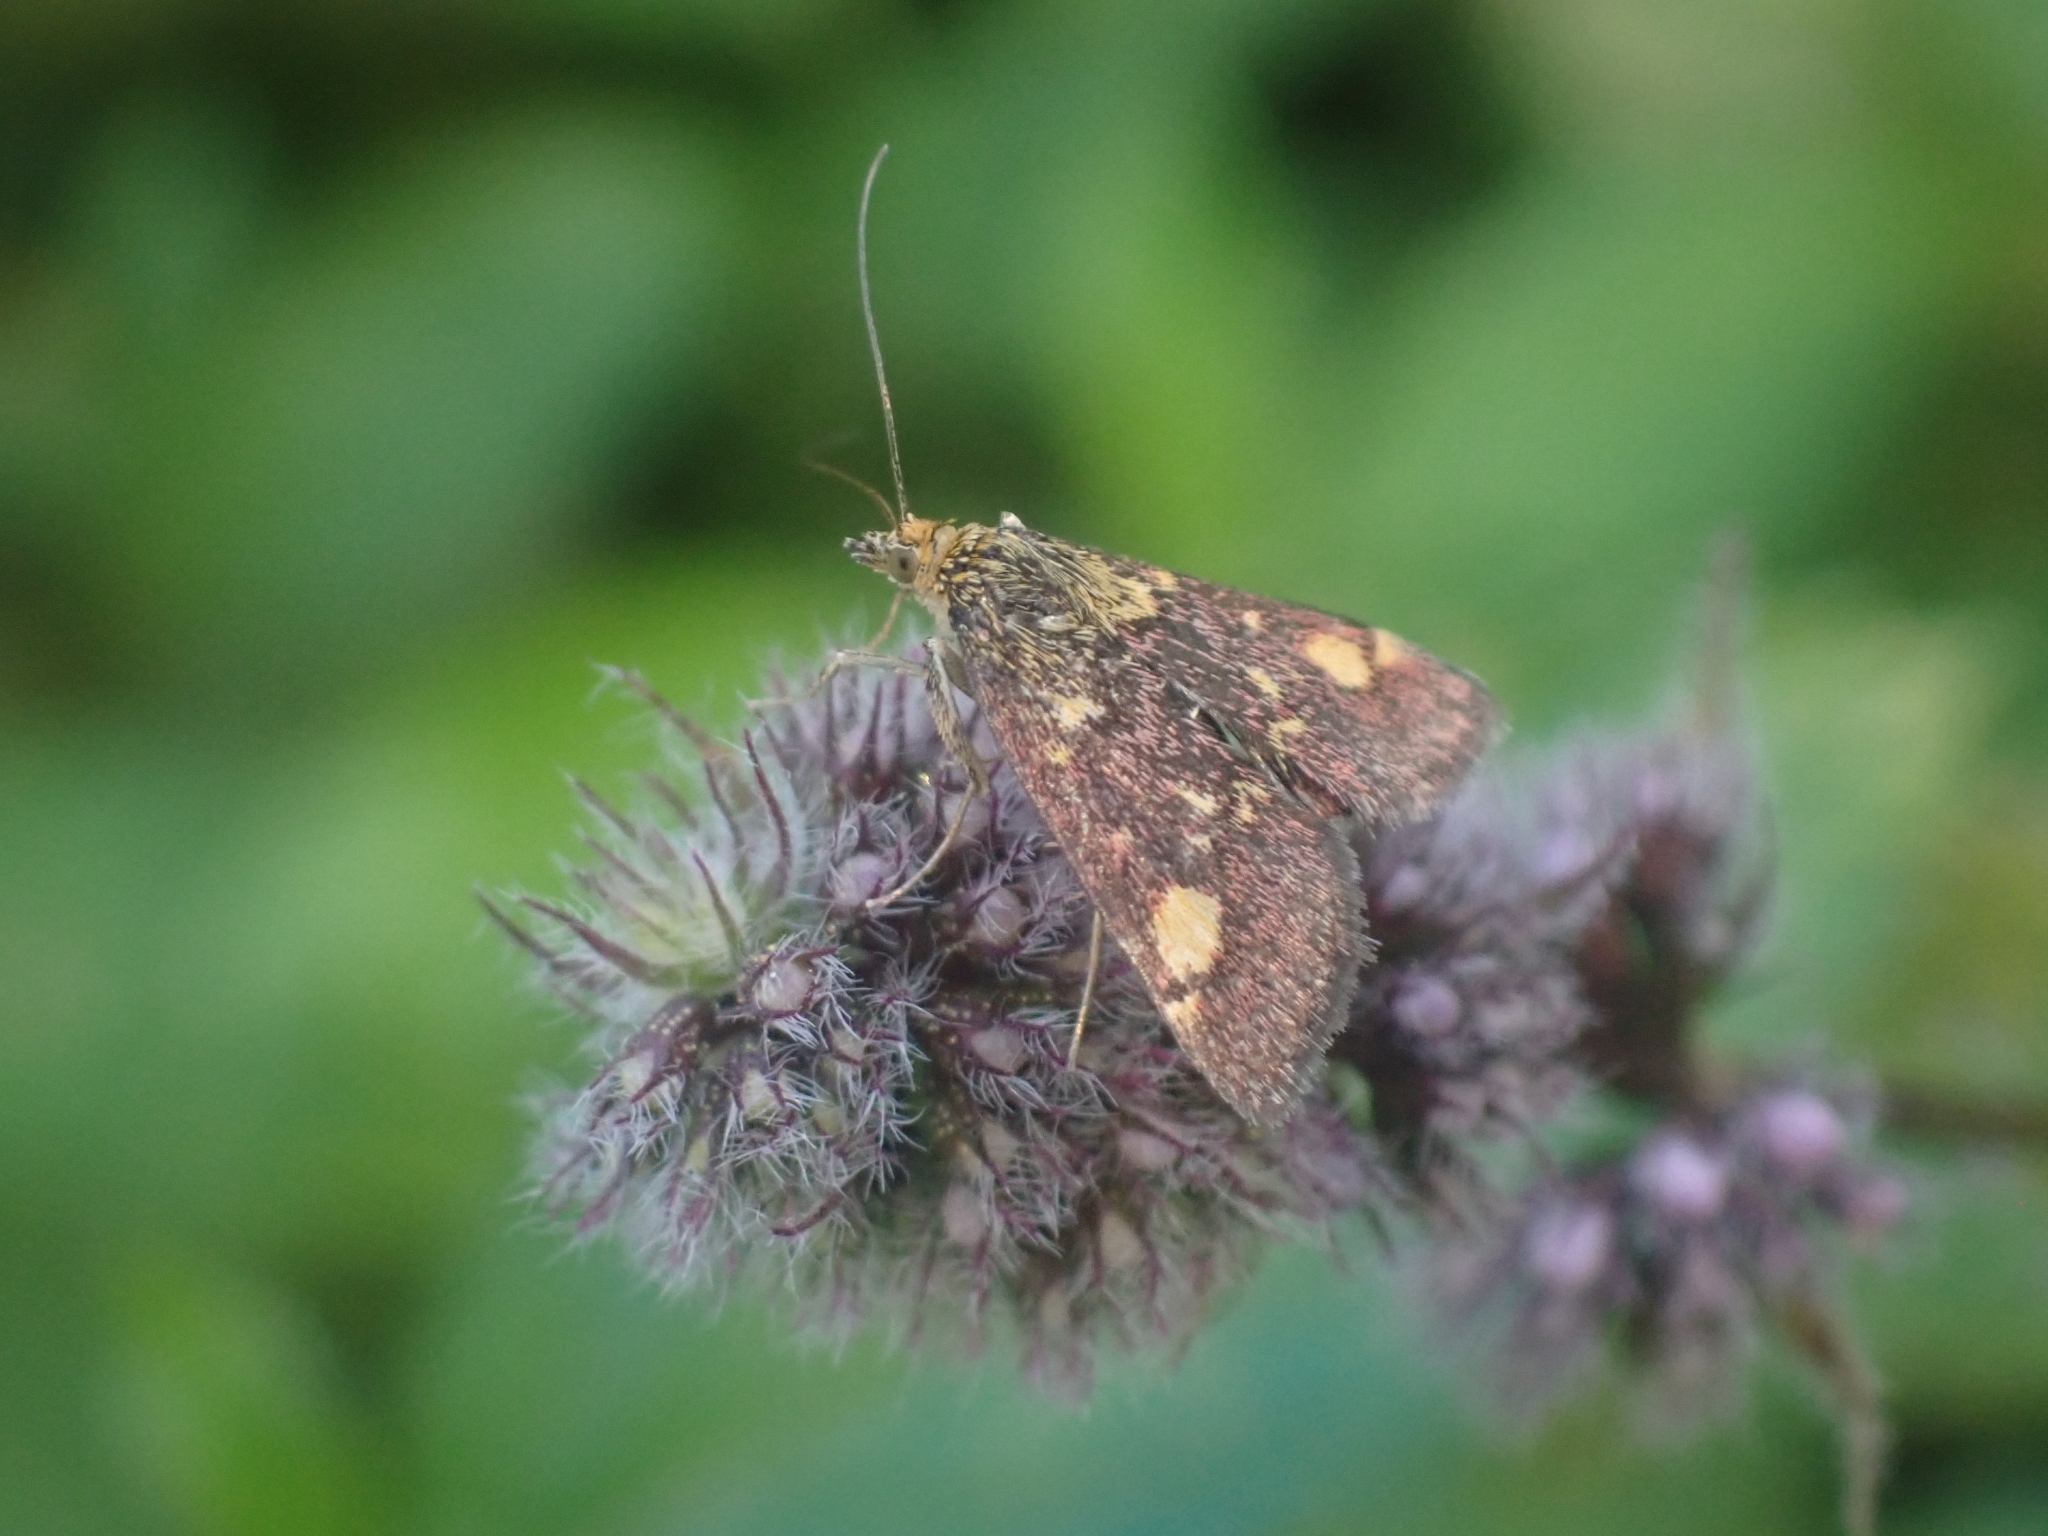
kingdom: Animalia
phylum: Arthropoda
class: Insecta
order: Lepidoptera
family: Crambidae
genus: Pyrausta
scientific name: Pyrausta aurata
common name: Small purple & gold
